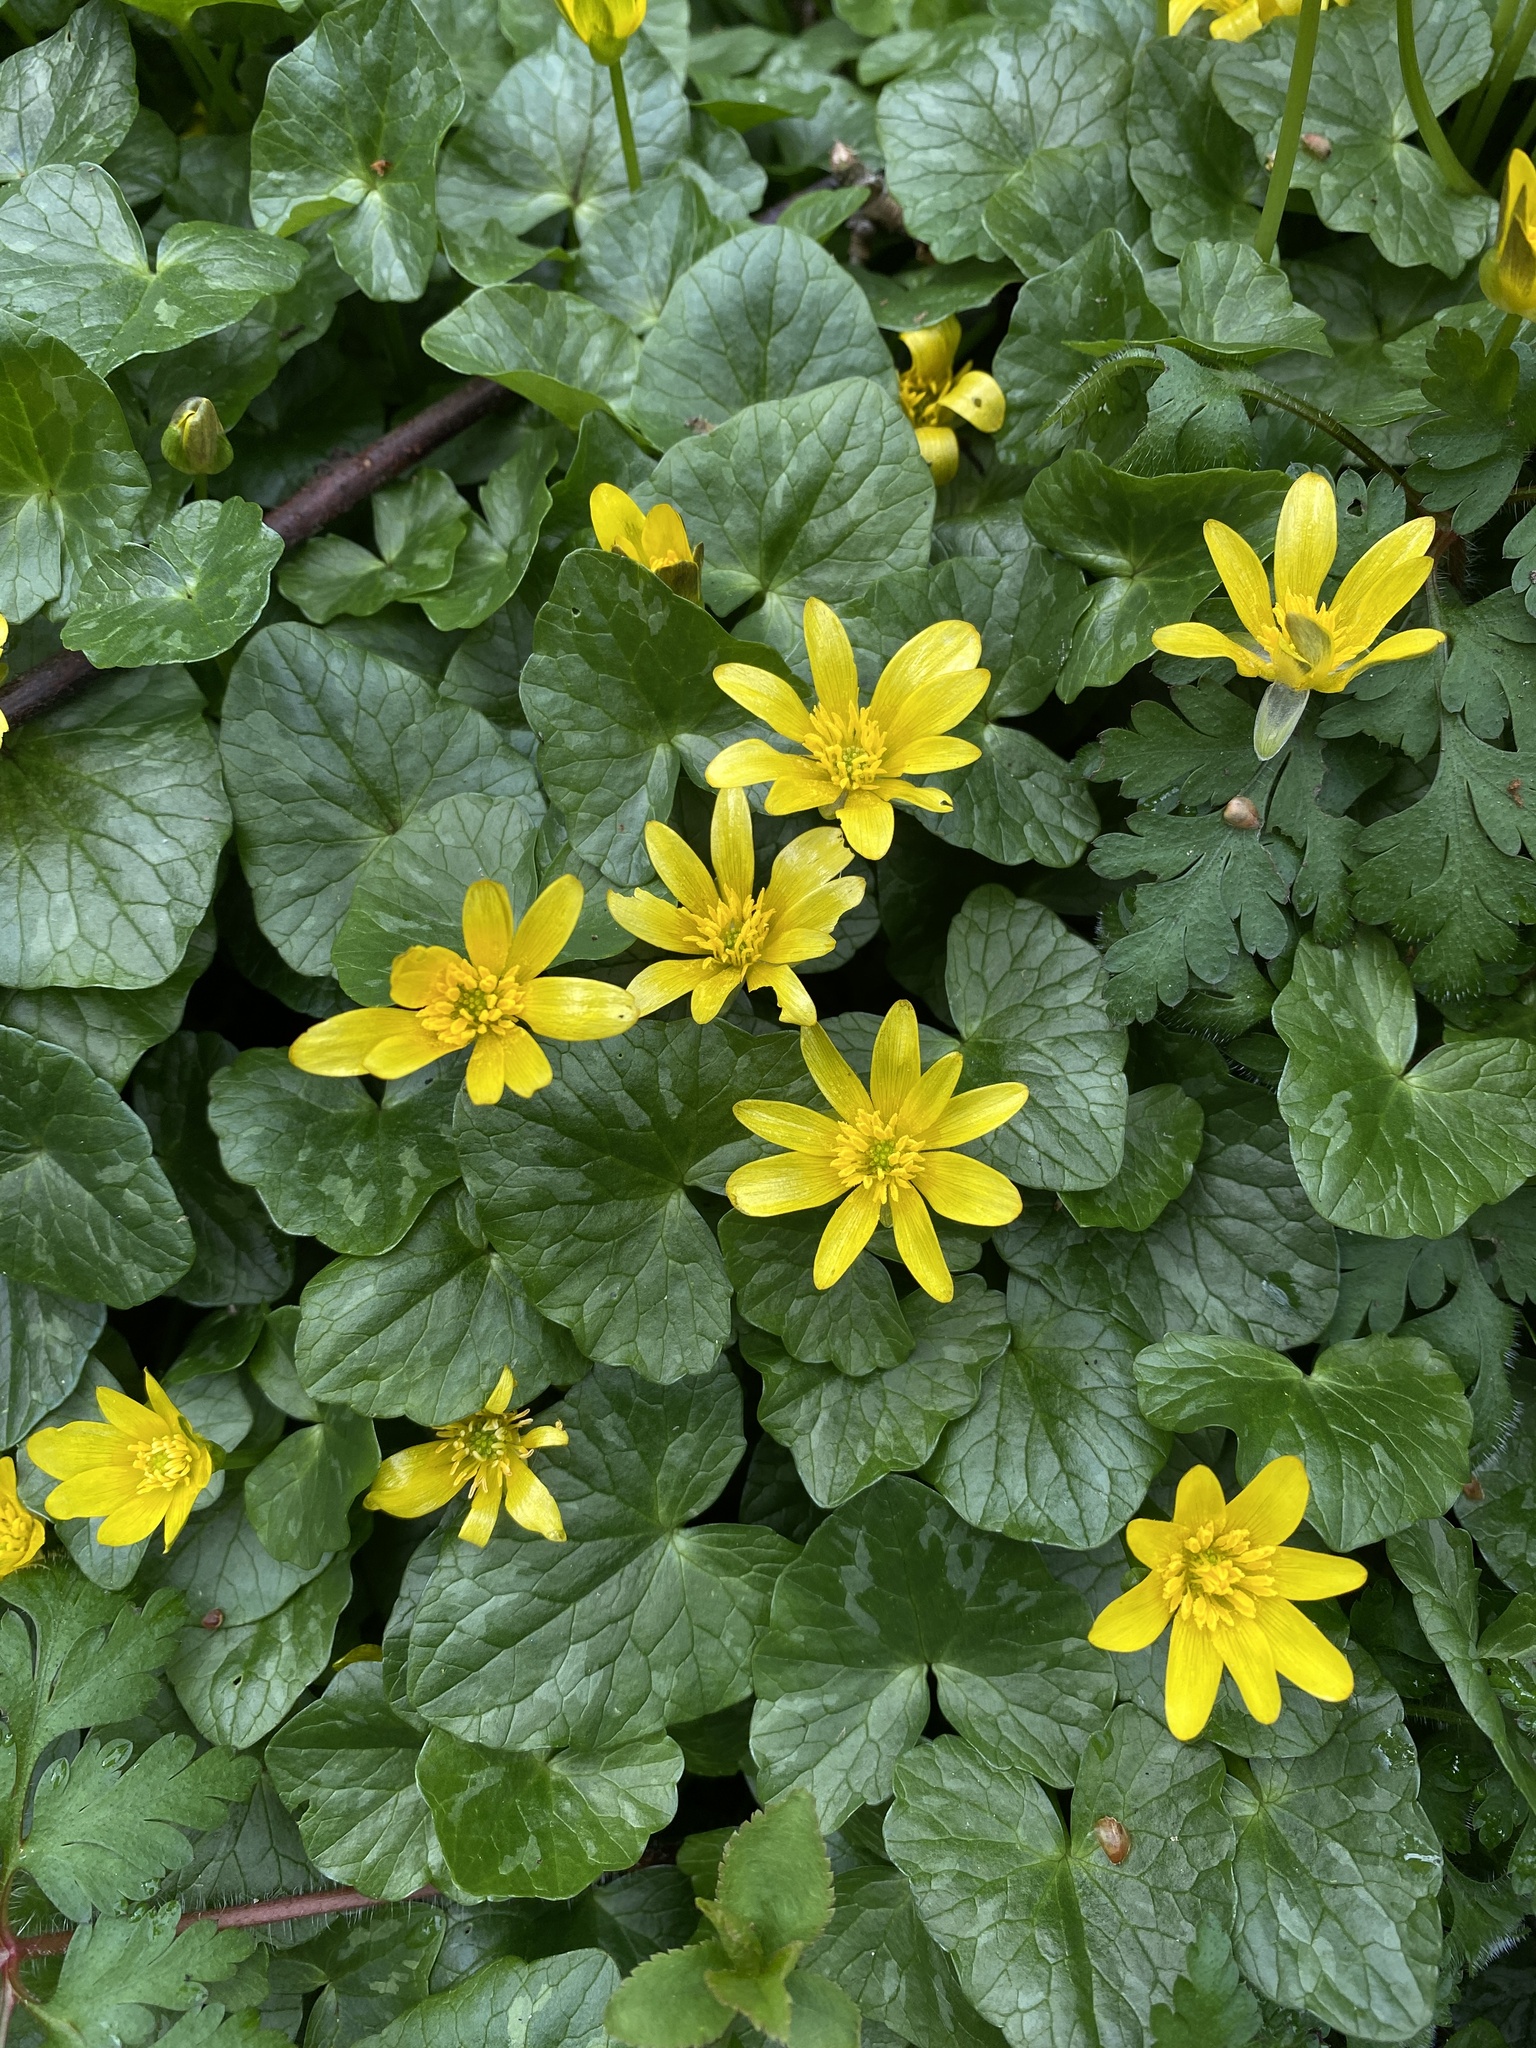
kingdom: Plantae
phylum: Tracheophyta
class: Magnoliopsida
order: Ranunculales
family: Ranunculaceae
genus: Ficaria
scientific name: Ficaria verna
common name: Lesser celandine
